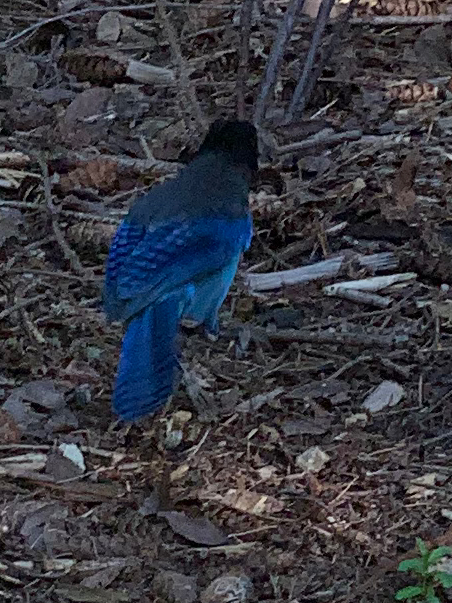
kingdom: Animalia
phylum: Chordata
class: Aves
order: Passeriformes
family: Corvidae
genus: Cyanocitta
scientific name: Cyanocitta stelleri
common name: Steller's jay
